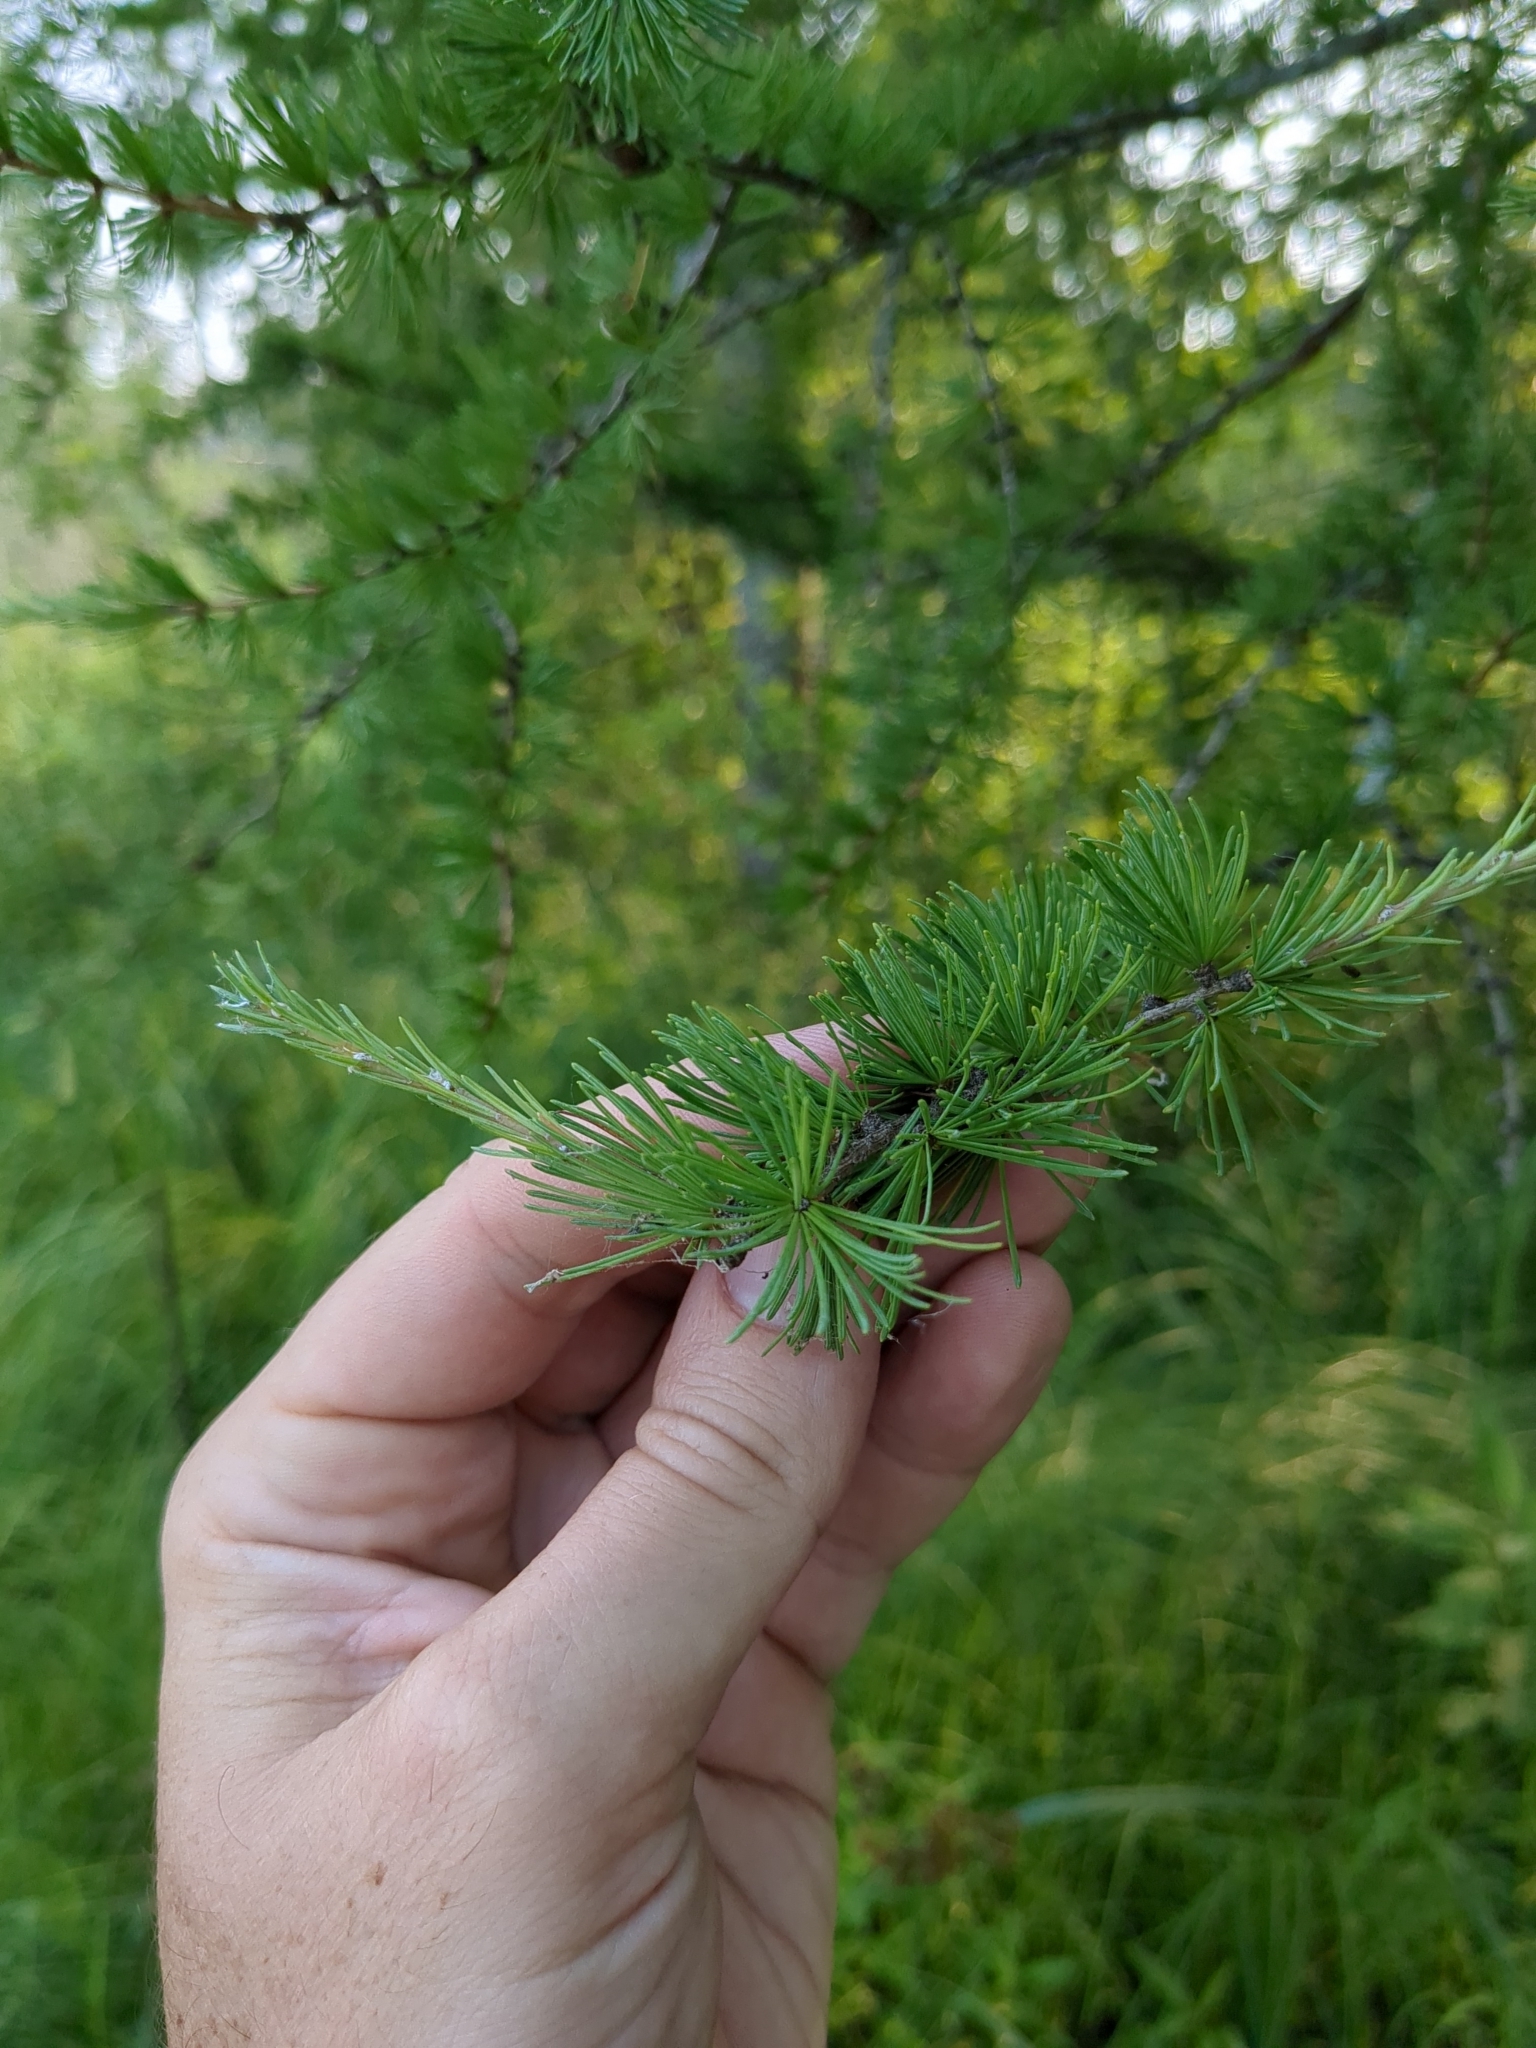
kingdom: Plantae
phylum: Tracheophyta
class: Pinopsida
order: Pinales
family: Pinaceae
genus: Larix
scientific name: Larix laricina
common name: American larch
